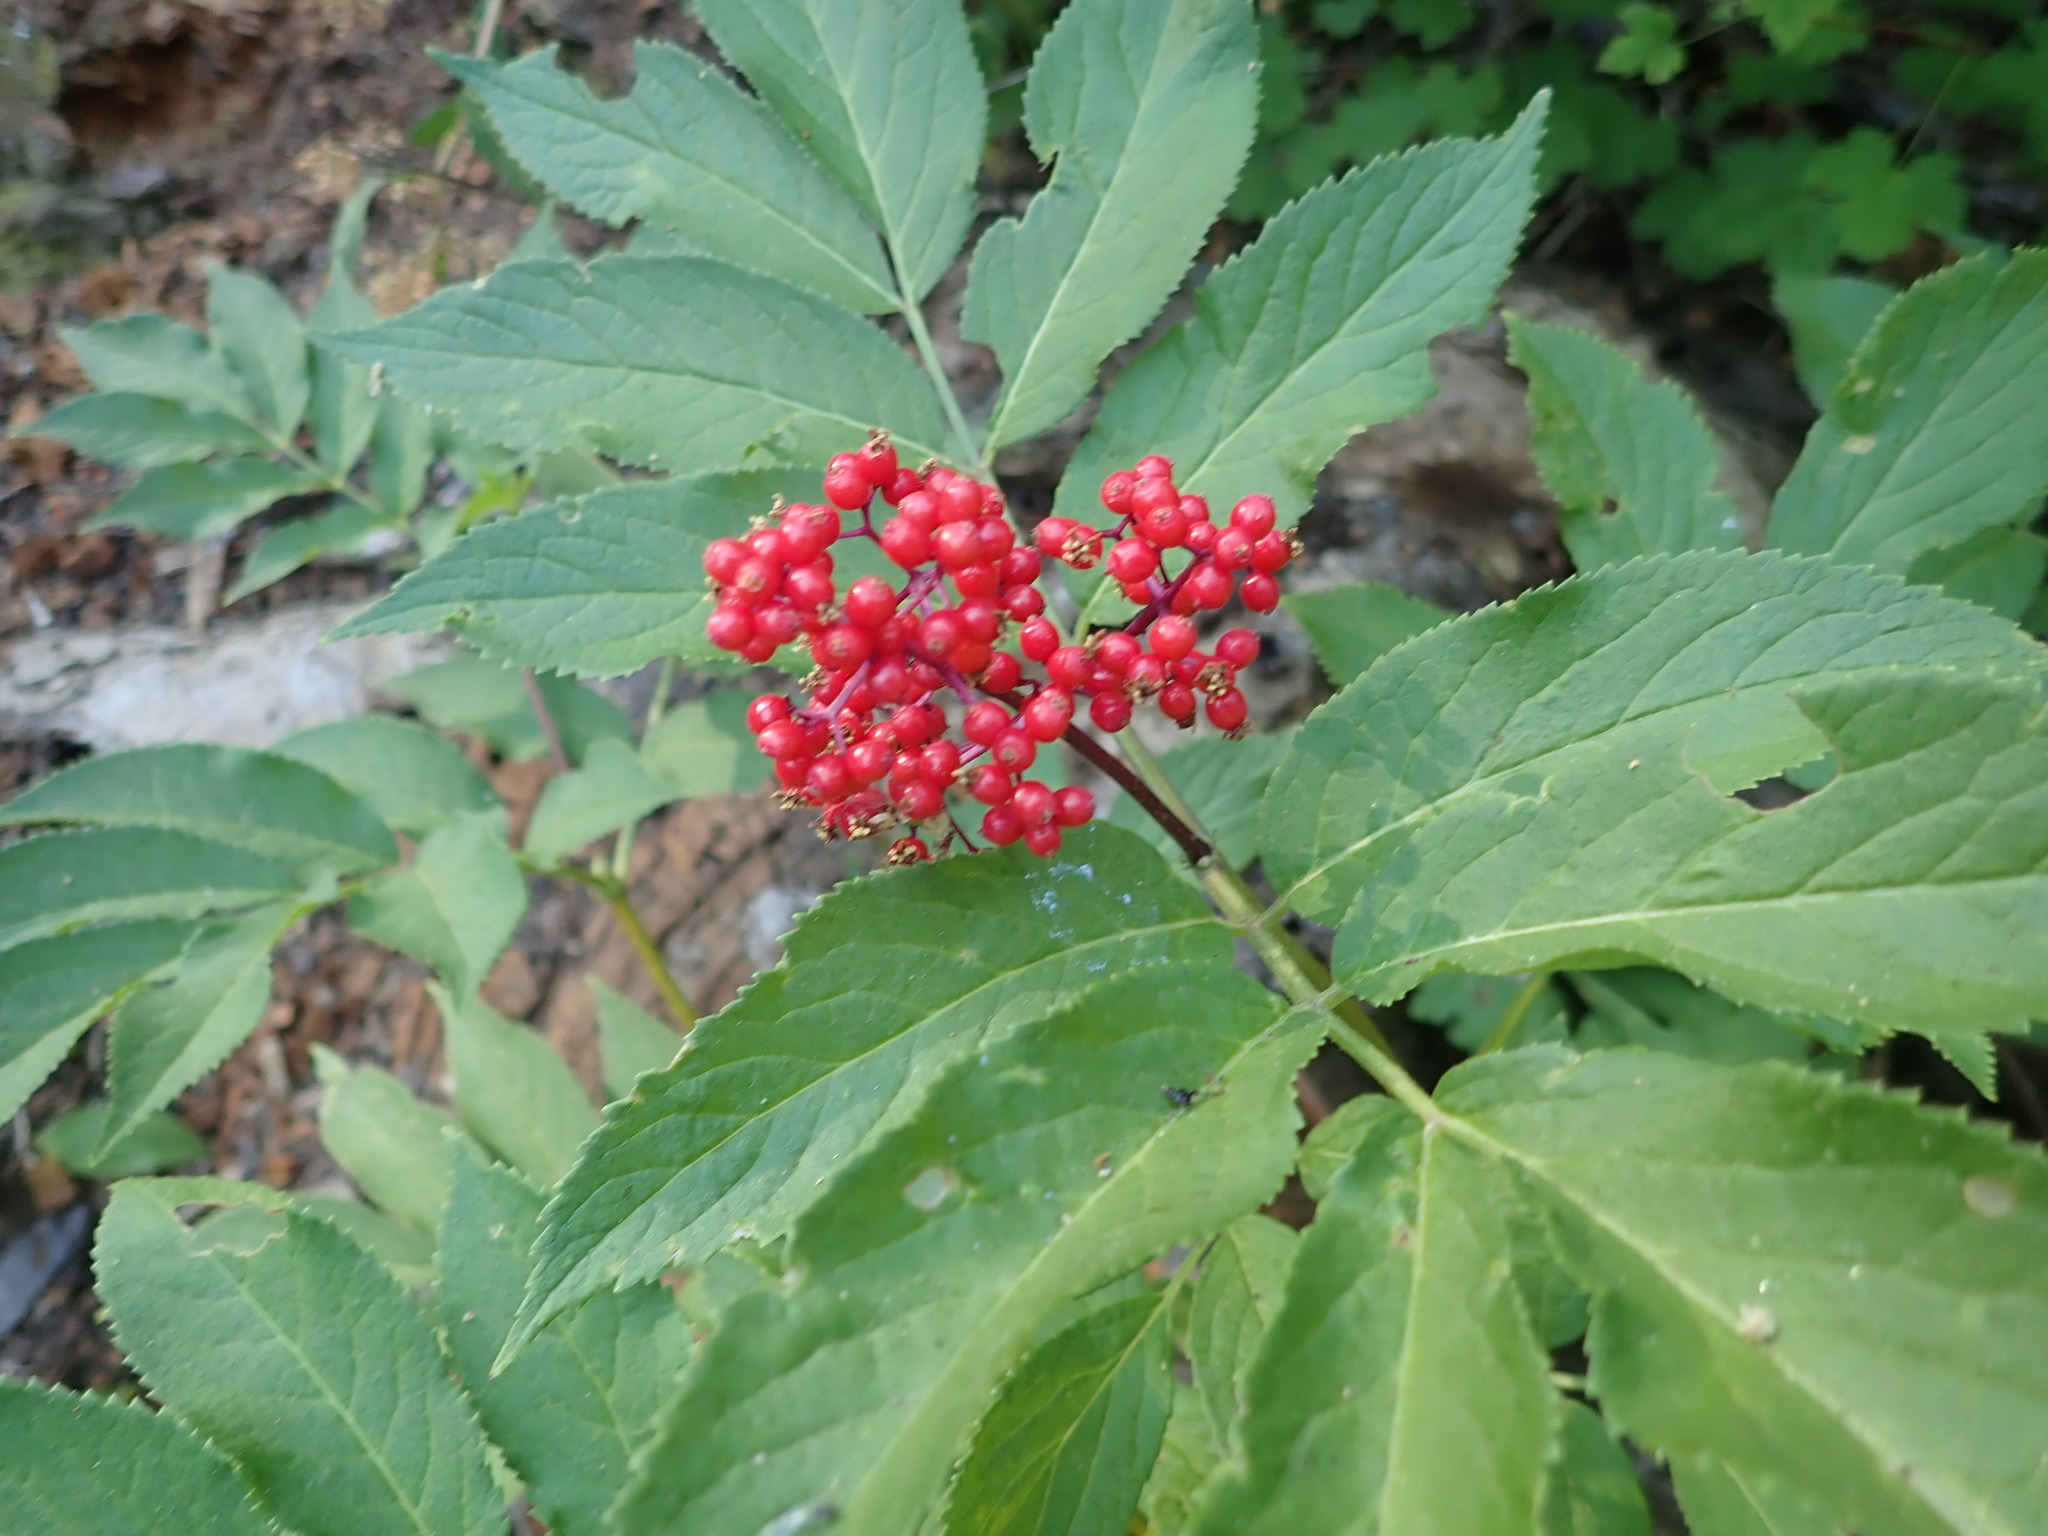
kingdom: Plantae
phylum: Tracheophyta
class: Magnoliopsida
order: Dipsacales
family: Viburnaceae
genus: Sambucus
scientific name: Sambucus racemosa
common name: Red-berried elder
